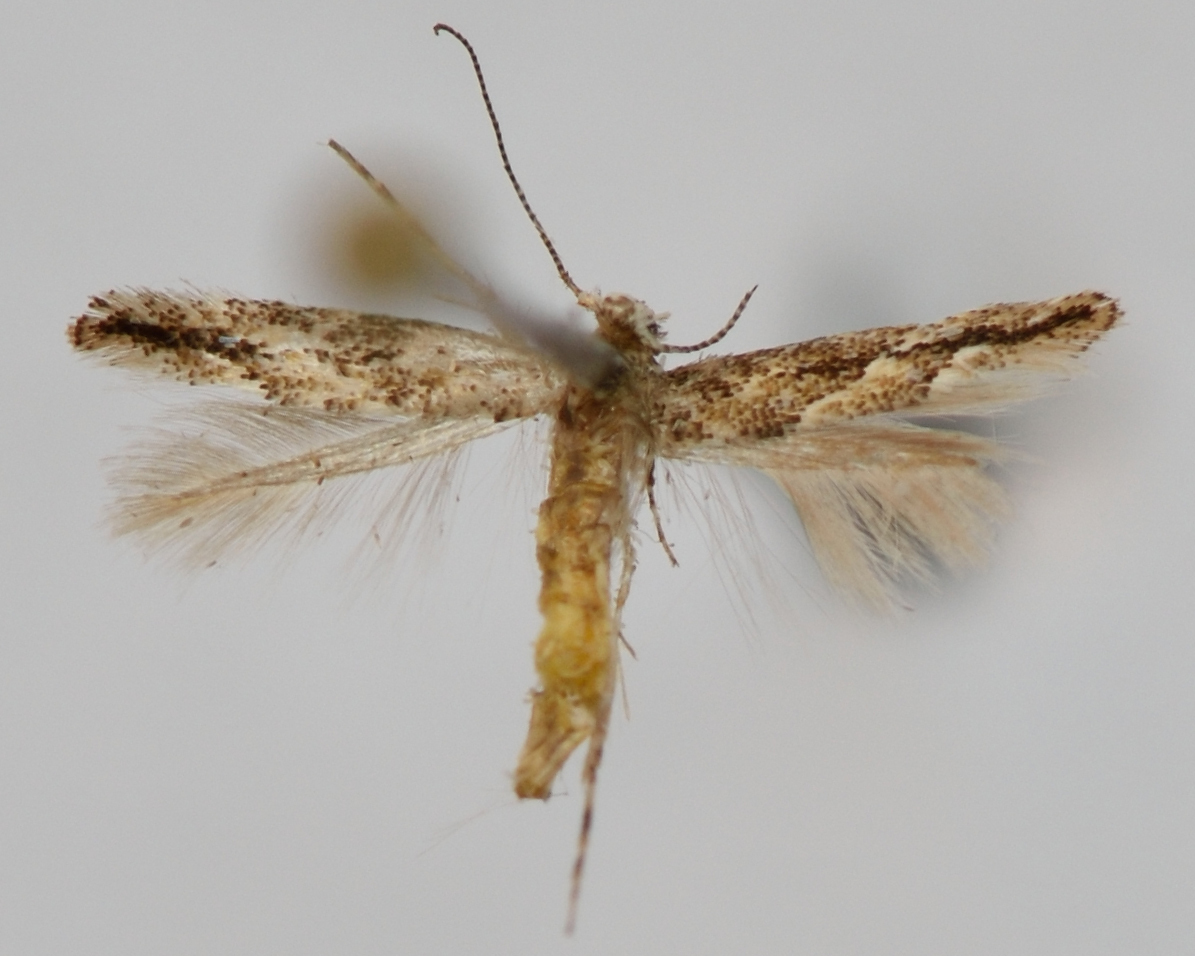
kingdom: Animalia
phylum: Arthropoda
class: Insecta
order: Lepidoptera
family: Gracillariidae
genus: Phyllonorycter
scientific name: Phyllonorycter issikii
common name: Linden midget
